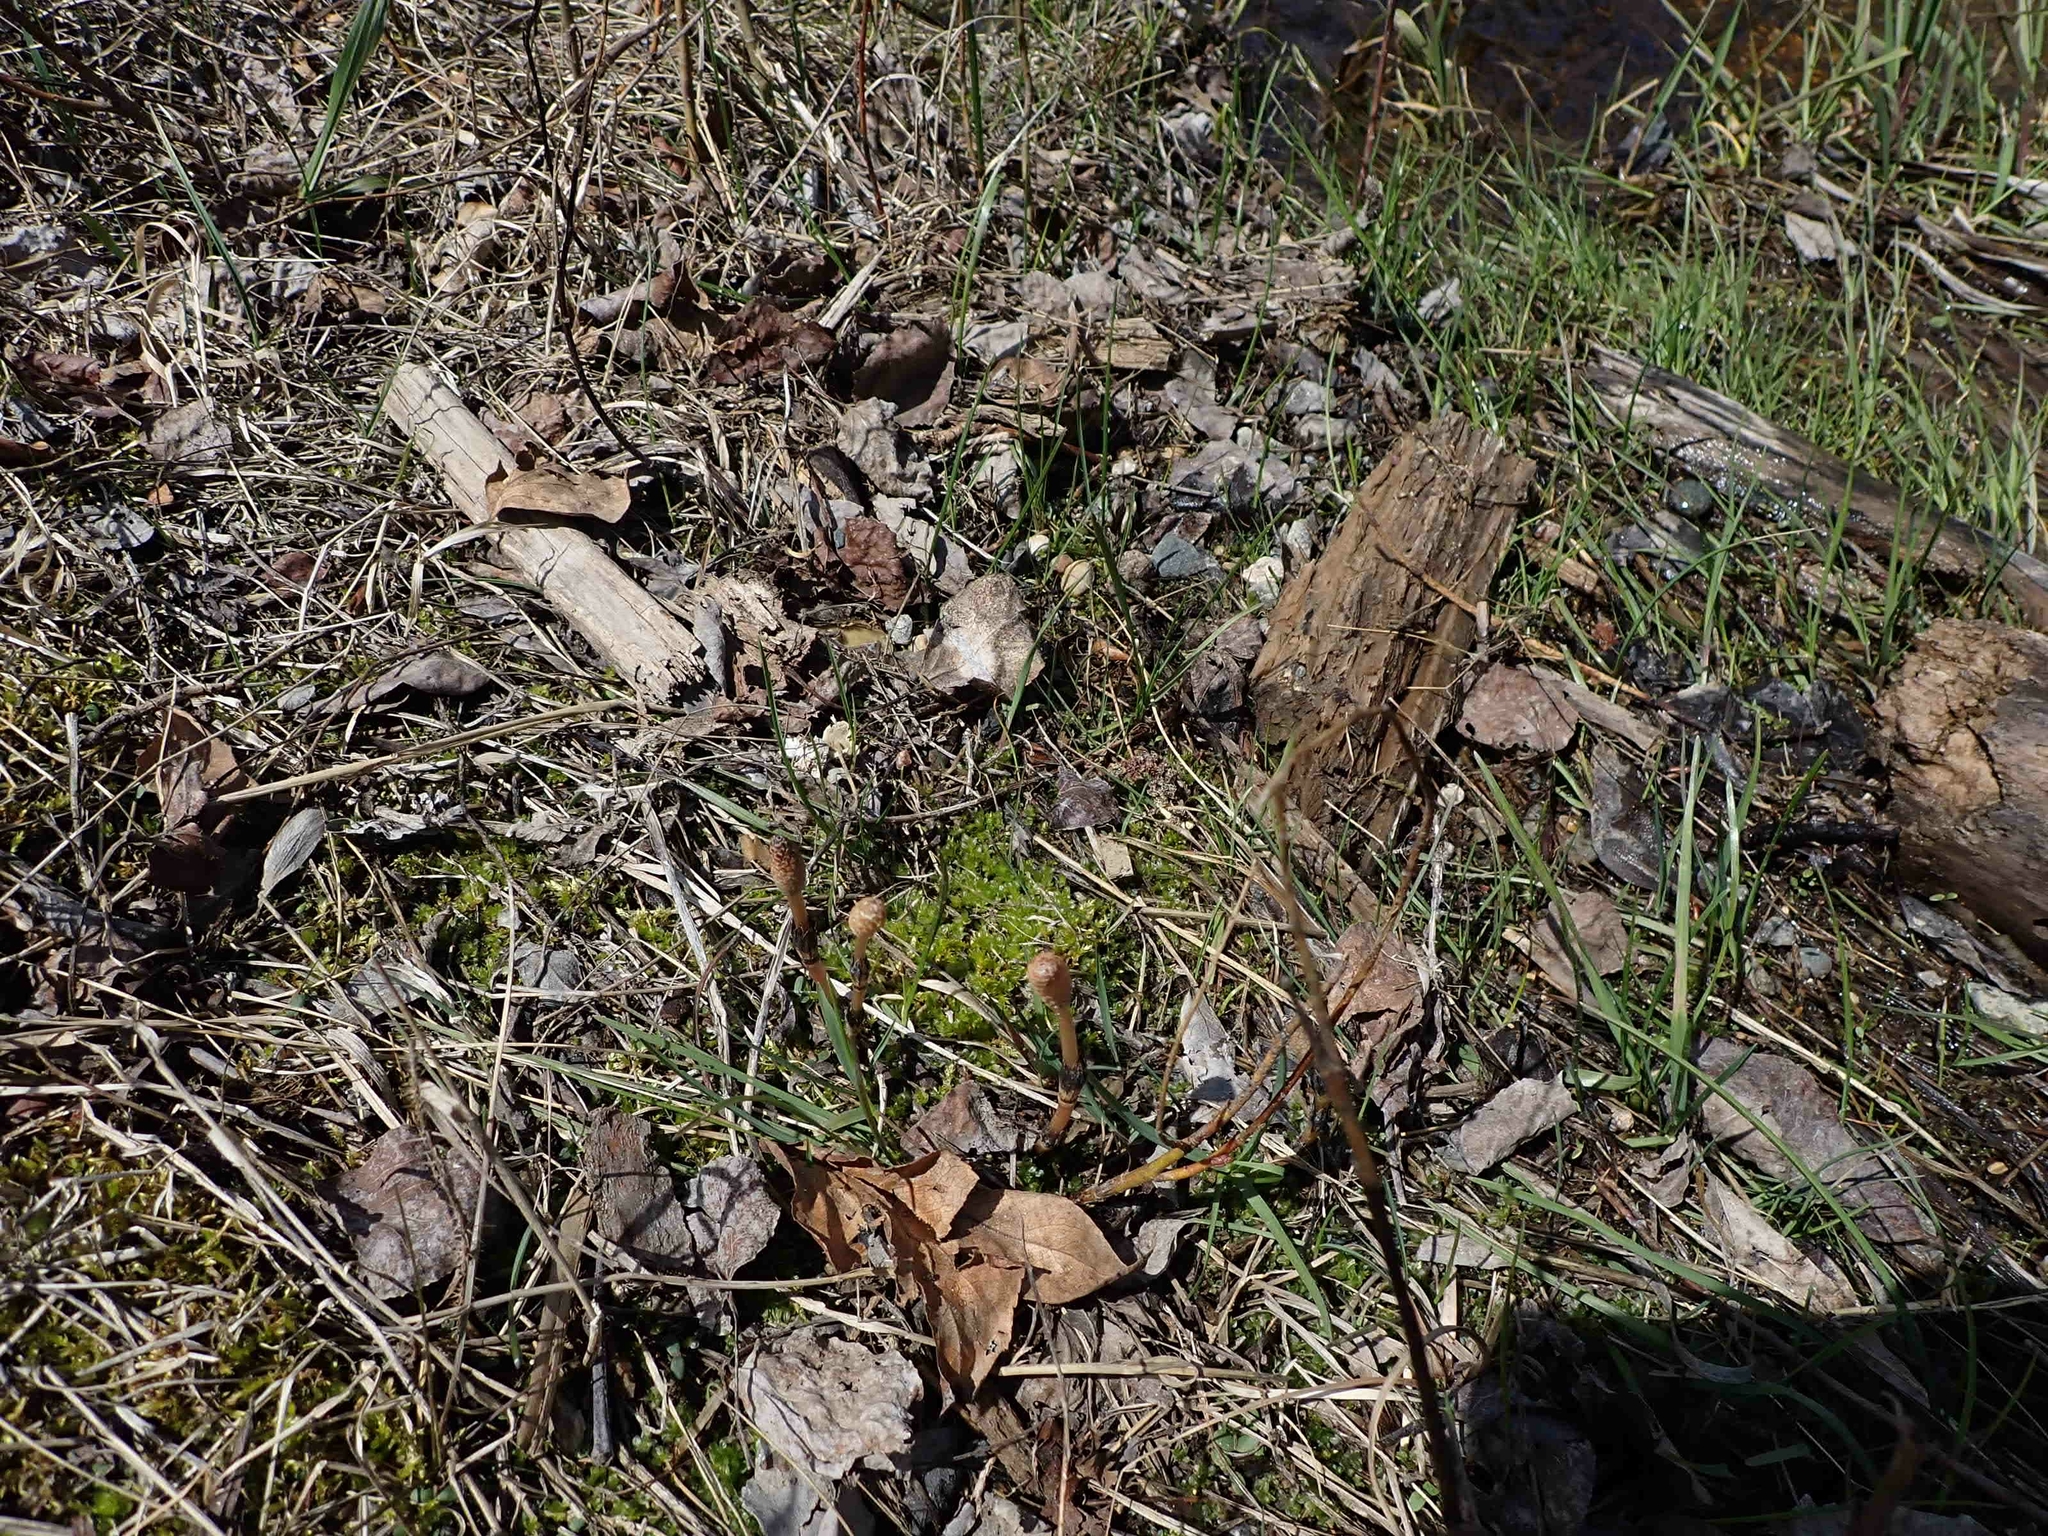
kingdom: Plantae
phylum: Tracheophyta
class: Polypodiopsida
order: Equisetales
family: Equisetaceae
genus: Equisetum
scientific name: Equisetum arvense
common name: Field horsetail
